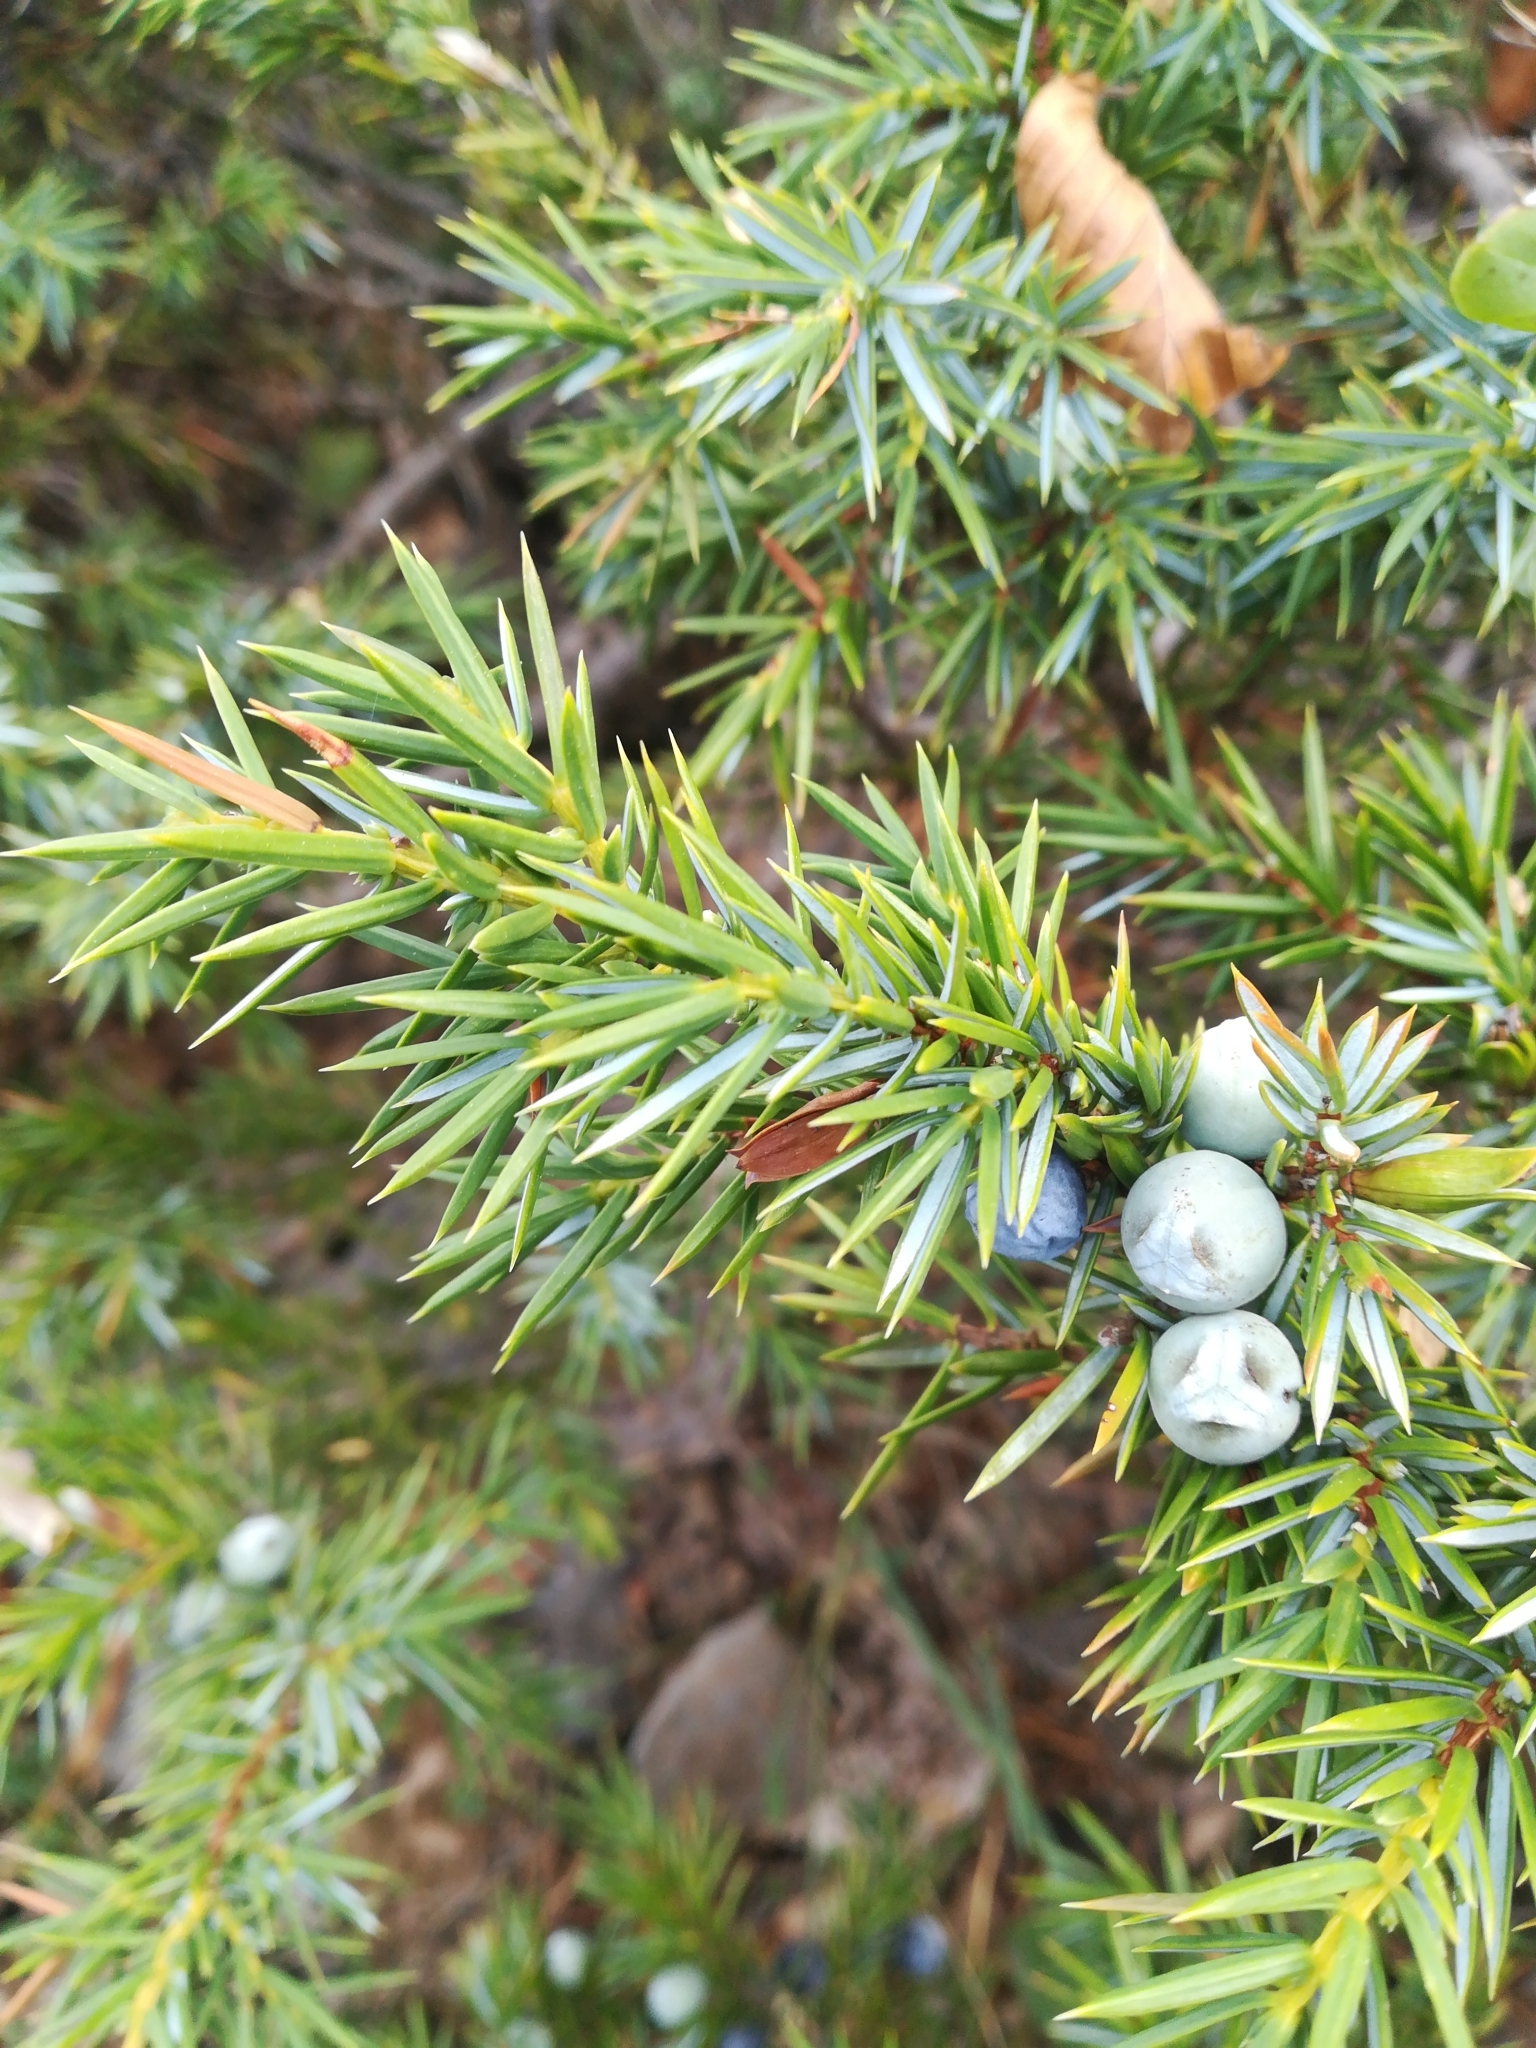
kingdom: Plantae
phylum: Tracheophyta
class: Pinopsida
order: Pinales
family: Cupressaceae
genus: Juniperus
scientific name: Juniperus communis
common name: Common juniper
